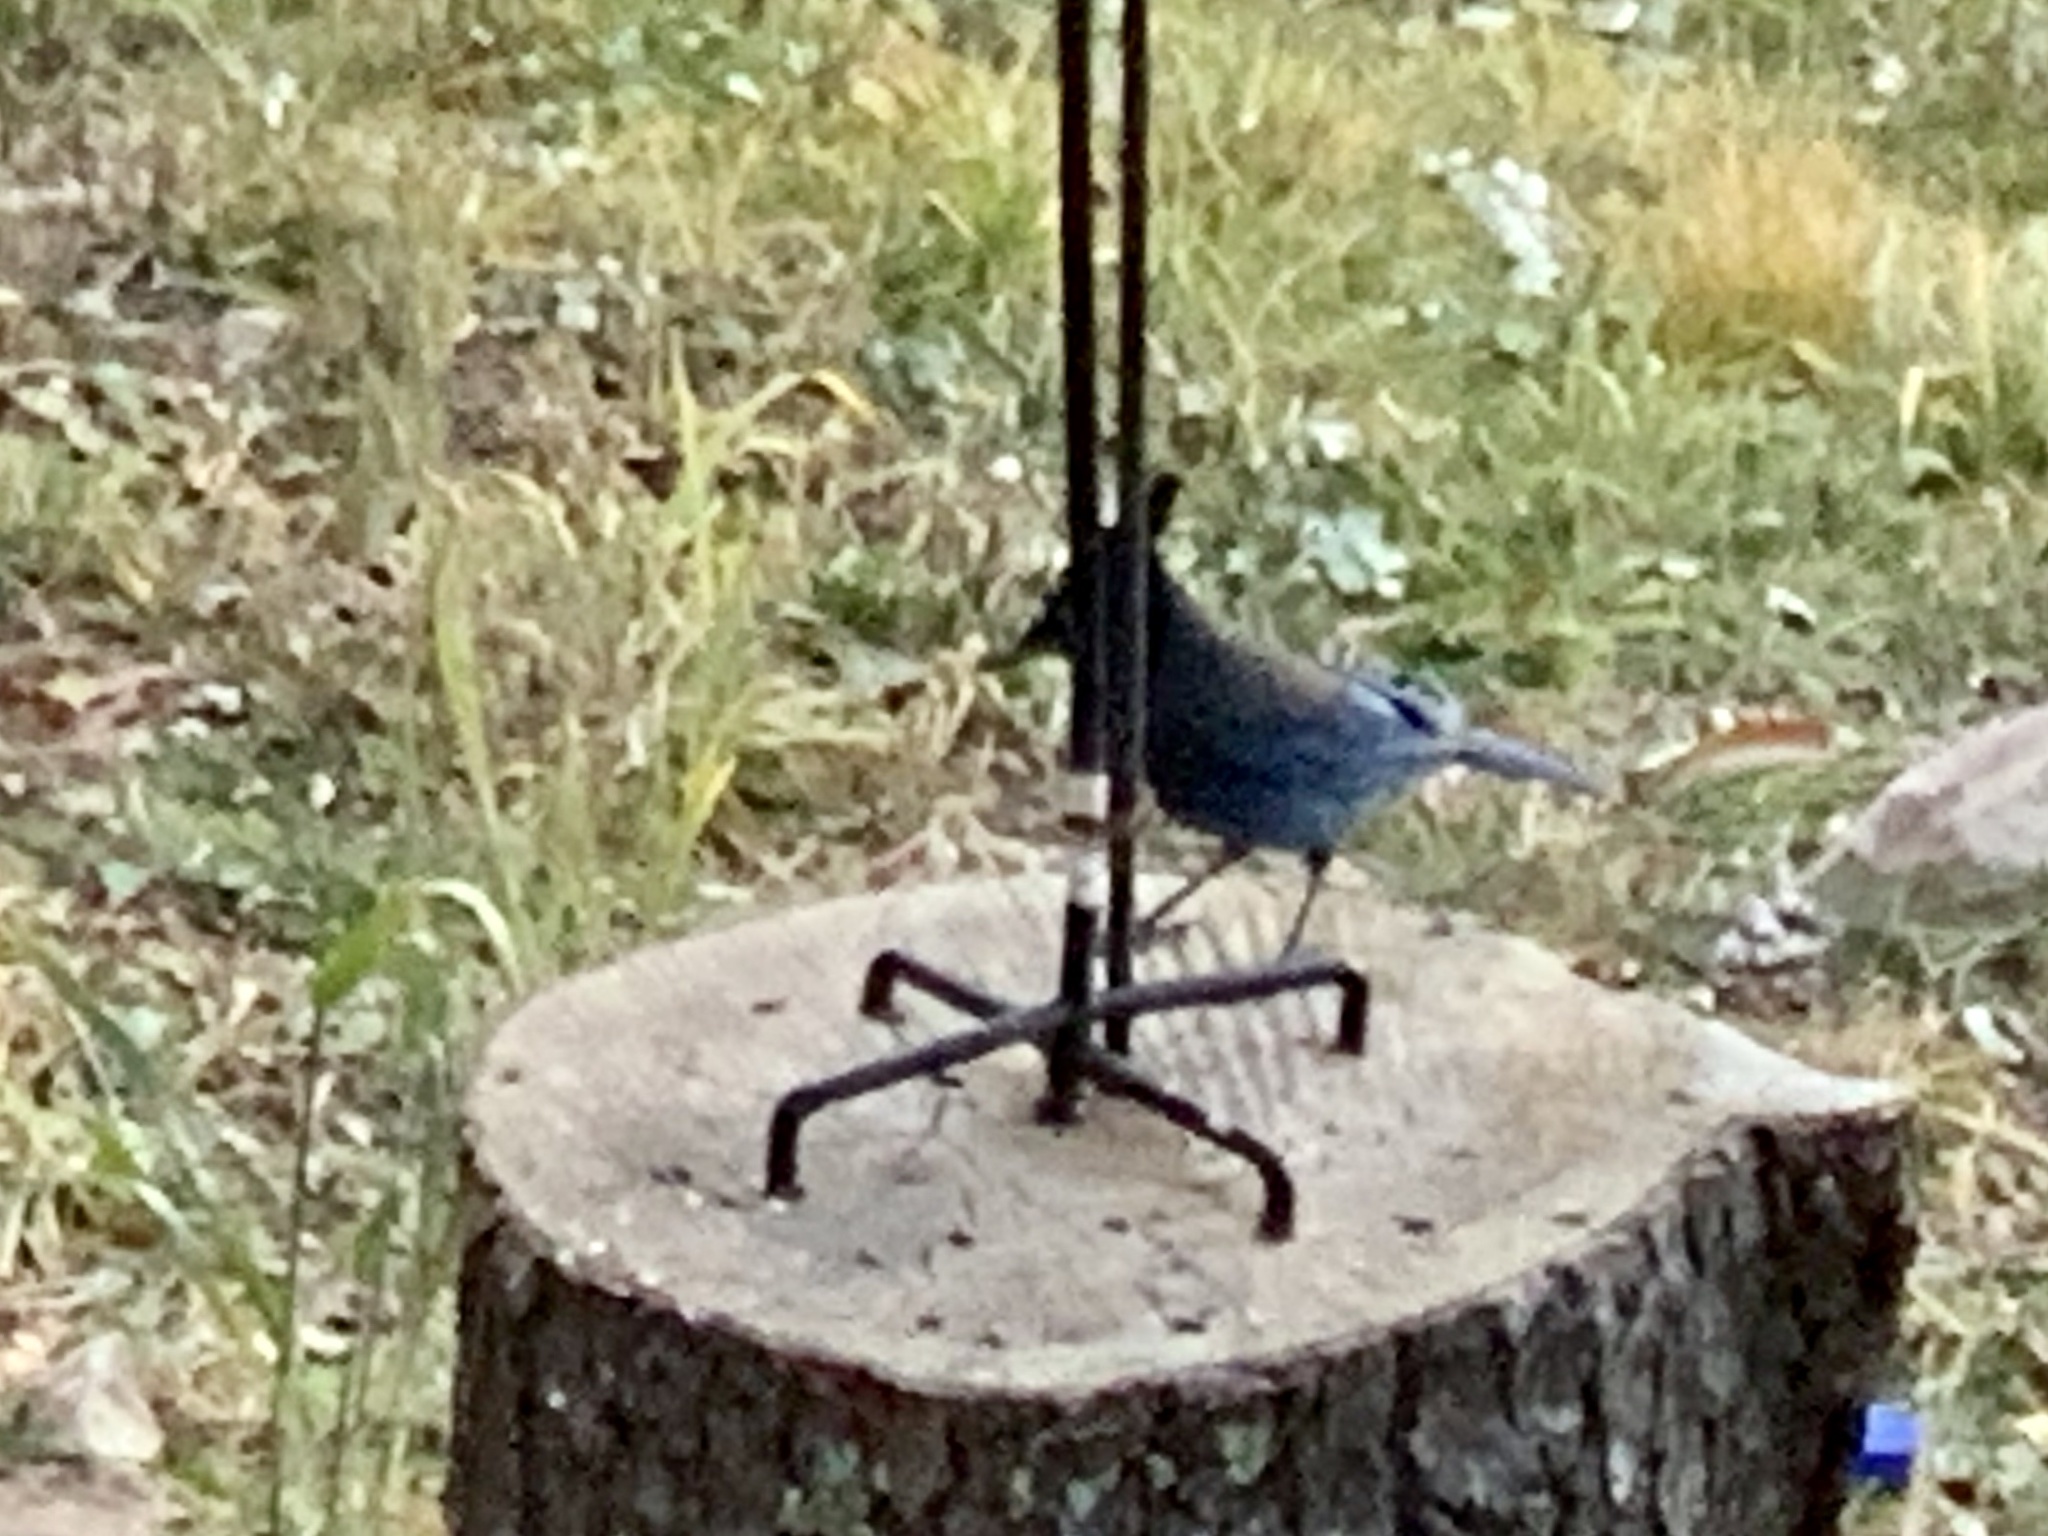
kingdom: Animalia
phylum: Chordata
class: Aves
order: Passeriformes
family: Corvidae
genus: Cyanocitta
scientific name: Cyanocitta stelleri
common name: Steller's jay
